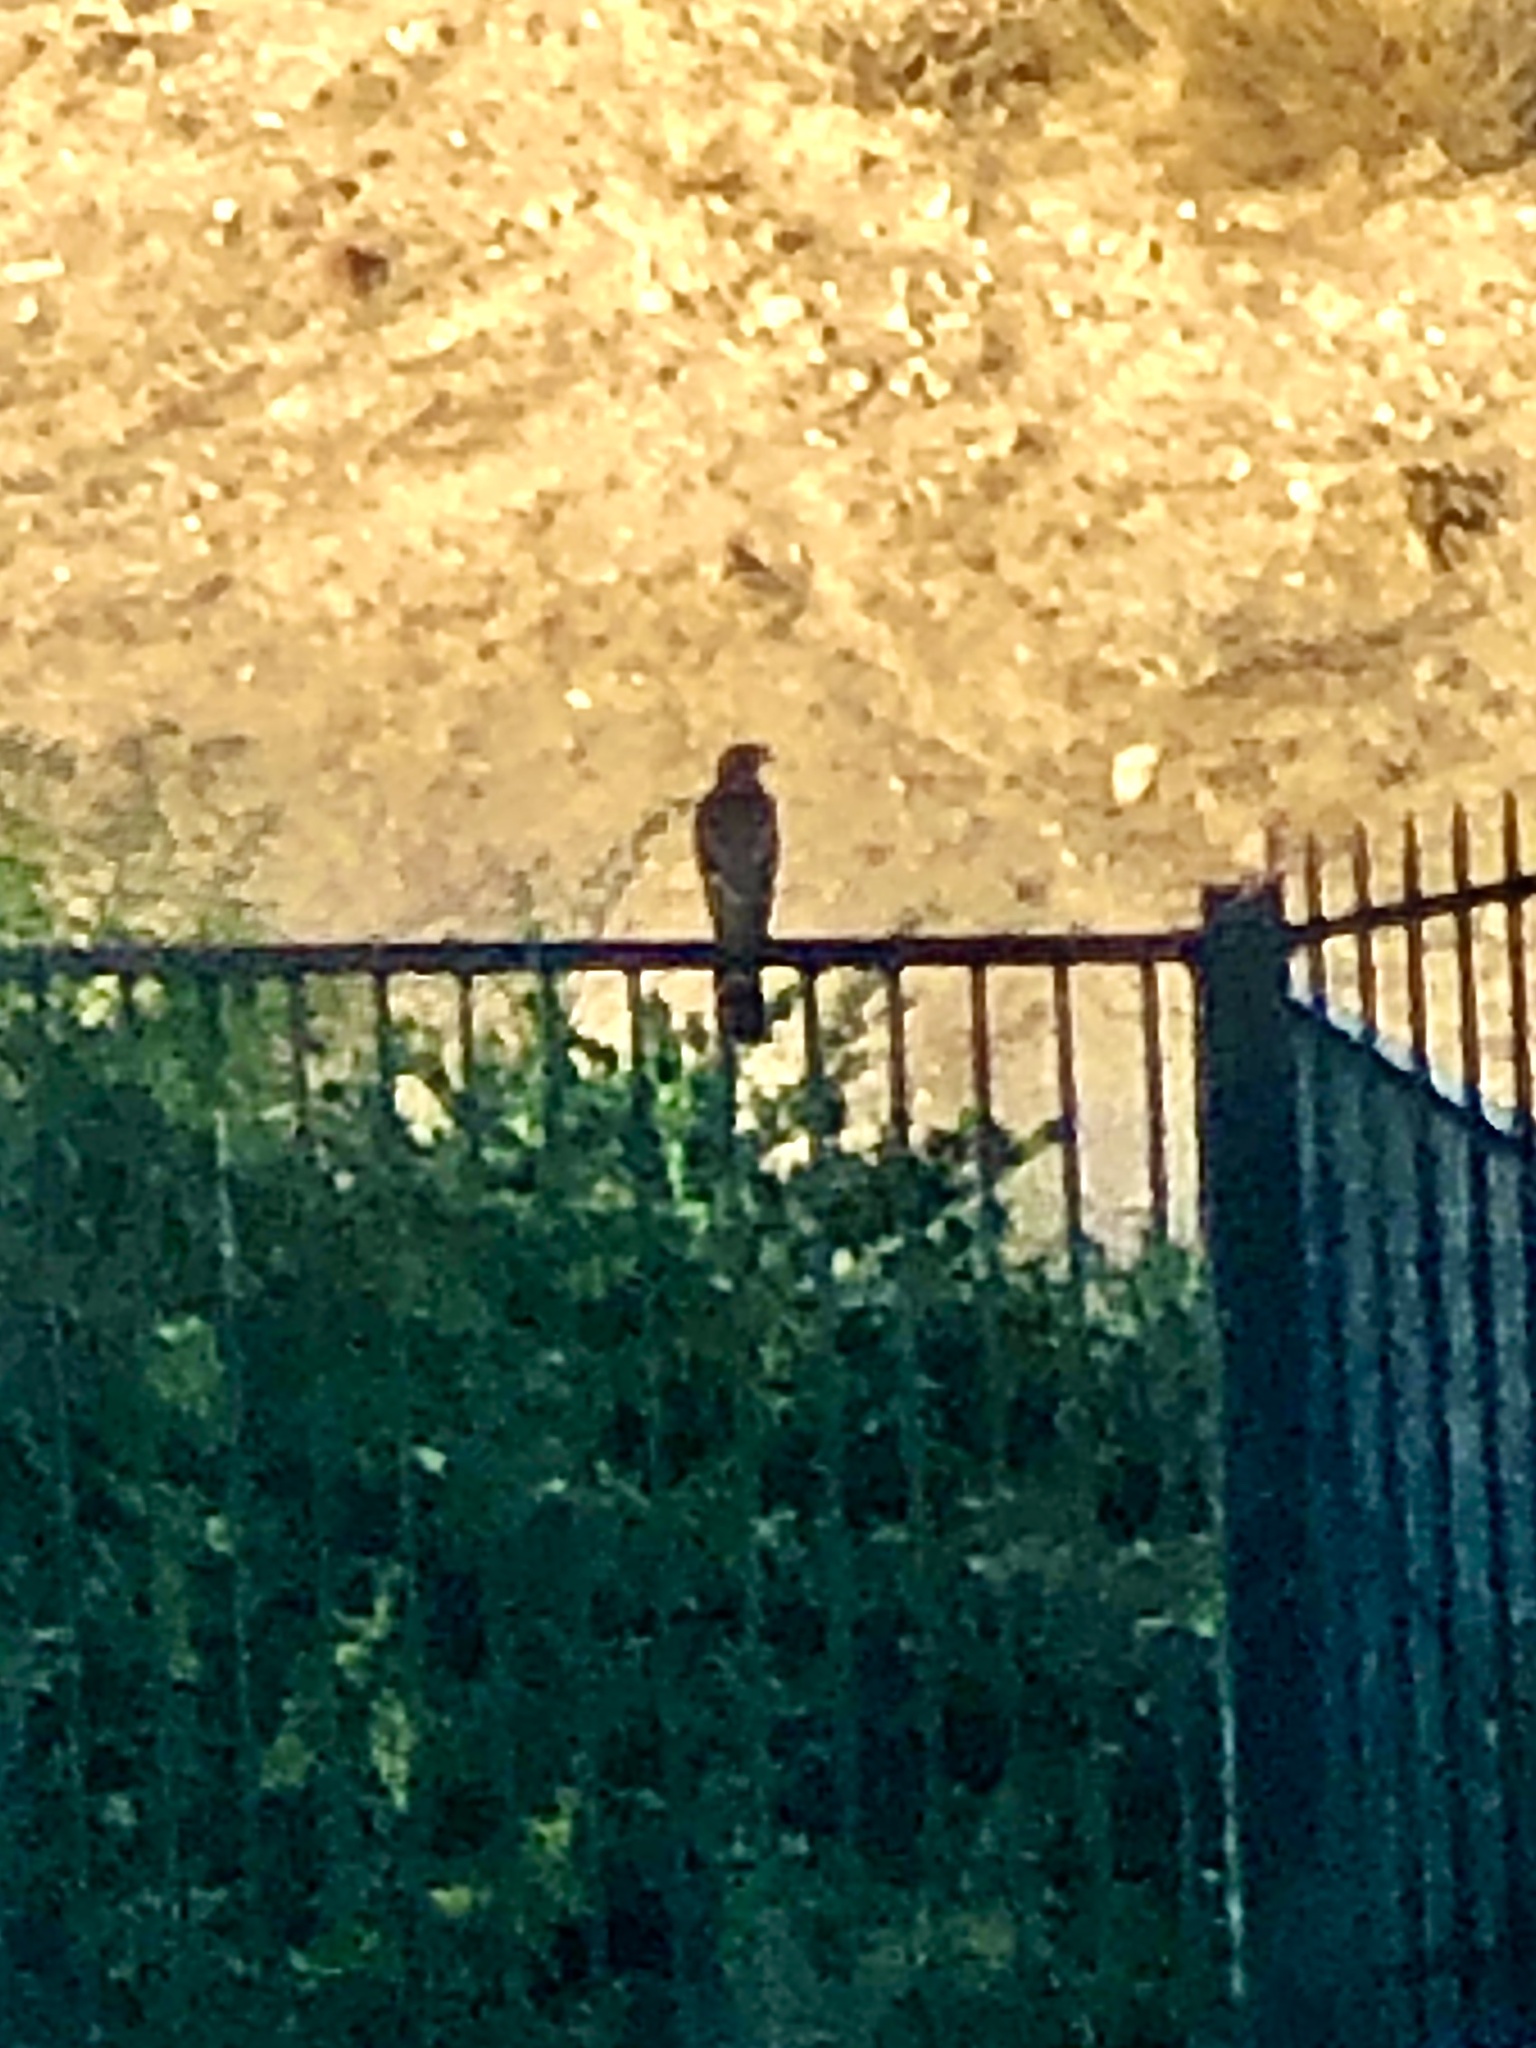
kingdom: Animalia
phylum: Chordata
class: Aves
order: Accipitriformes
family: Accipitridae
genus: Accipiter
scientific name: Accipiter cooperii
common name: Cooper's hawk
